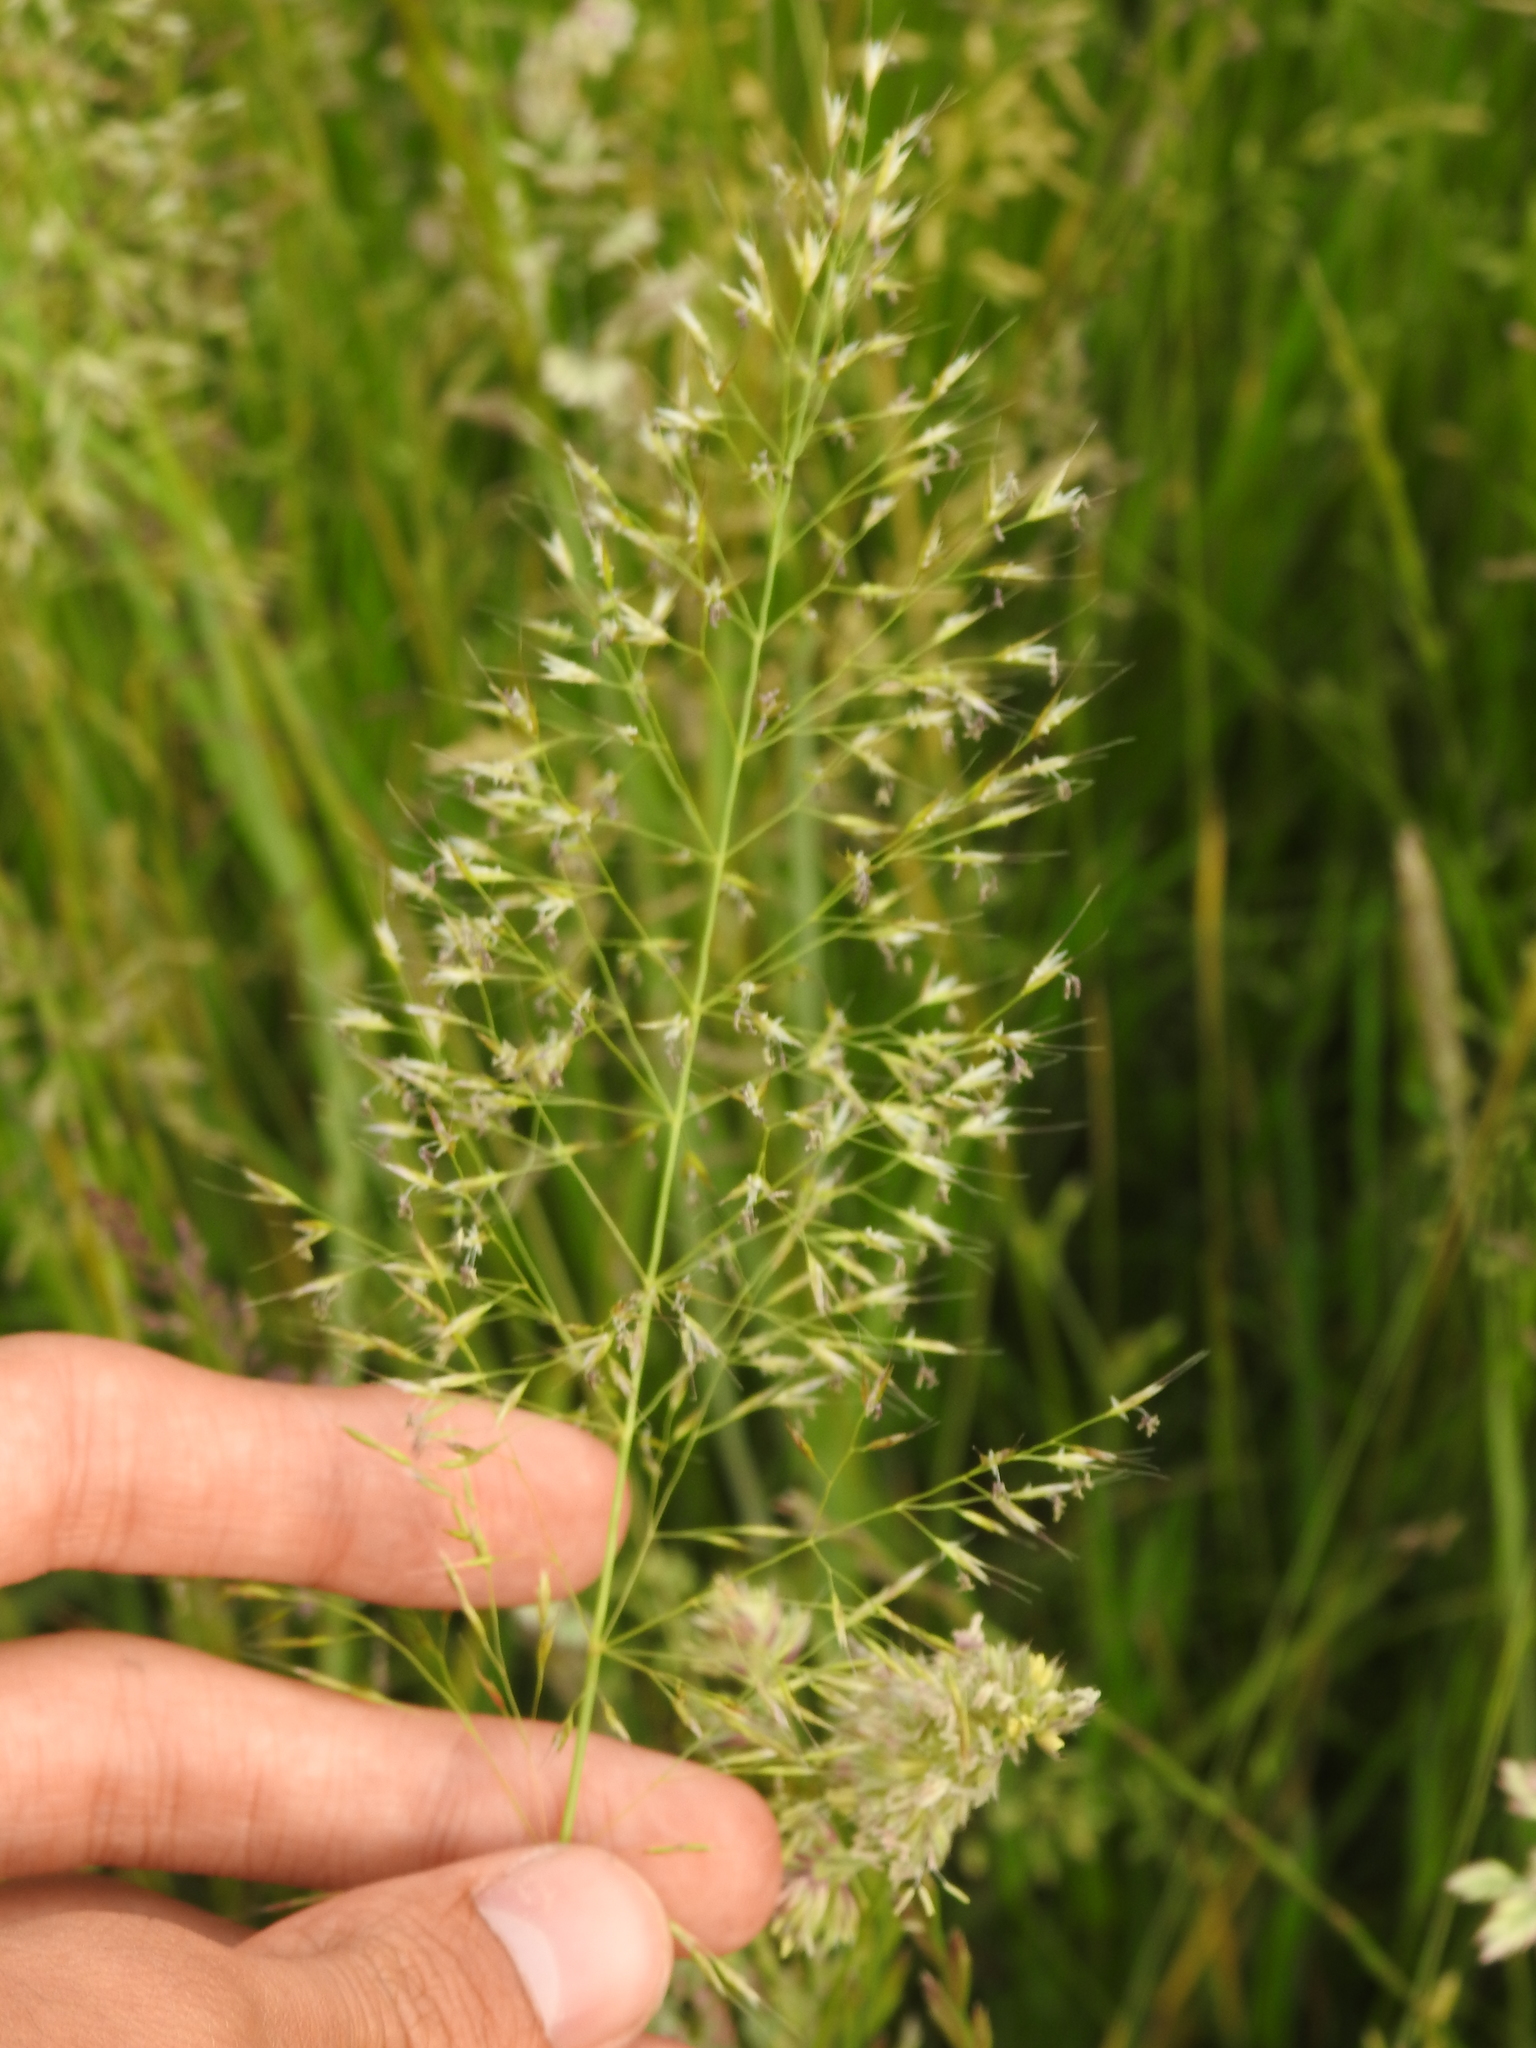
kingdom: Plantae
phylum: Tracheophyta
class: Liliopsida
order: Poales
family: Poaceae
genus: Trisetum
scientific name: Trisetum flavescens
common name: Yellow oat-grass
